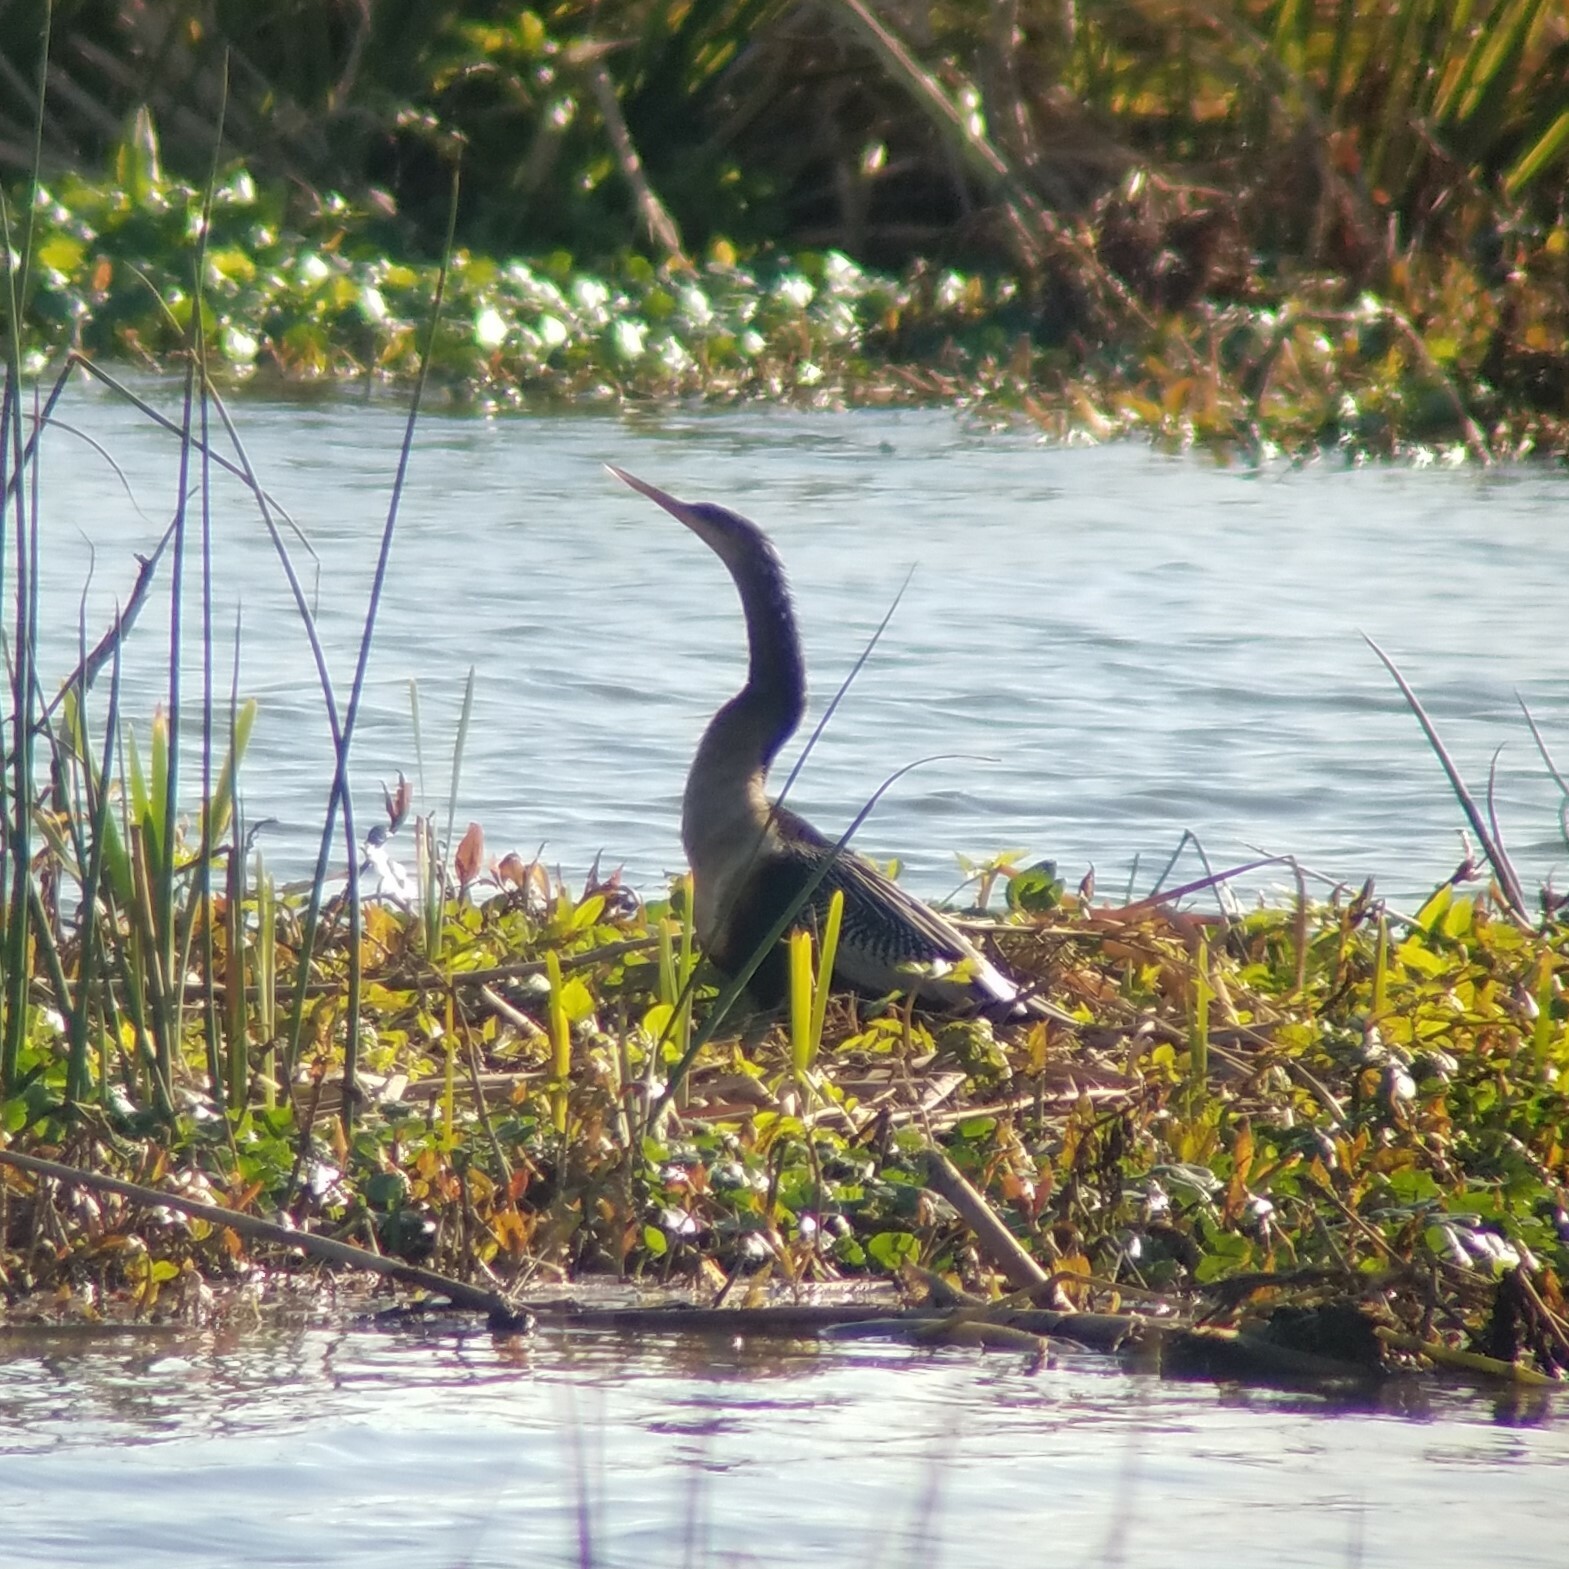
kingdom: Animalia
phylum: Chordata
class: Aves
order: Suliformes
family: Anhingidae
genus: Anhinga
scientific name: Anhinga anhinga
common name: Anhinga
